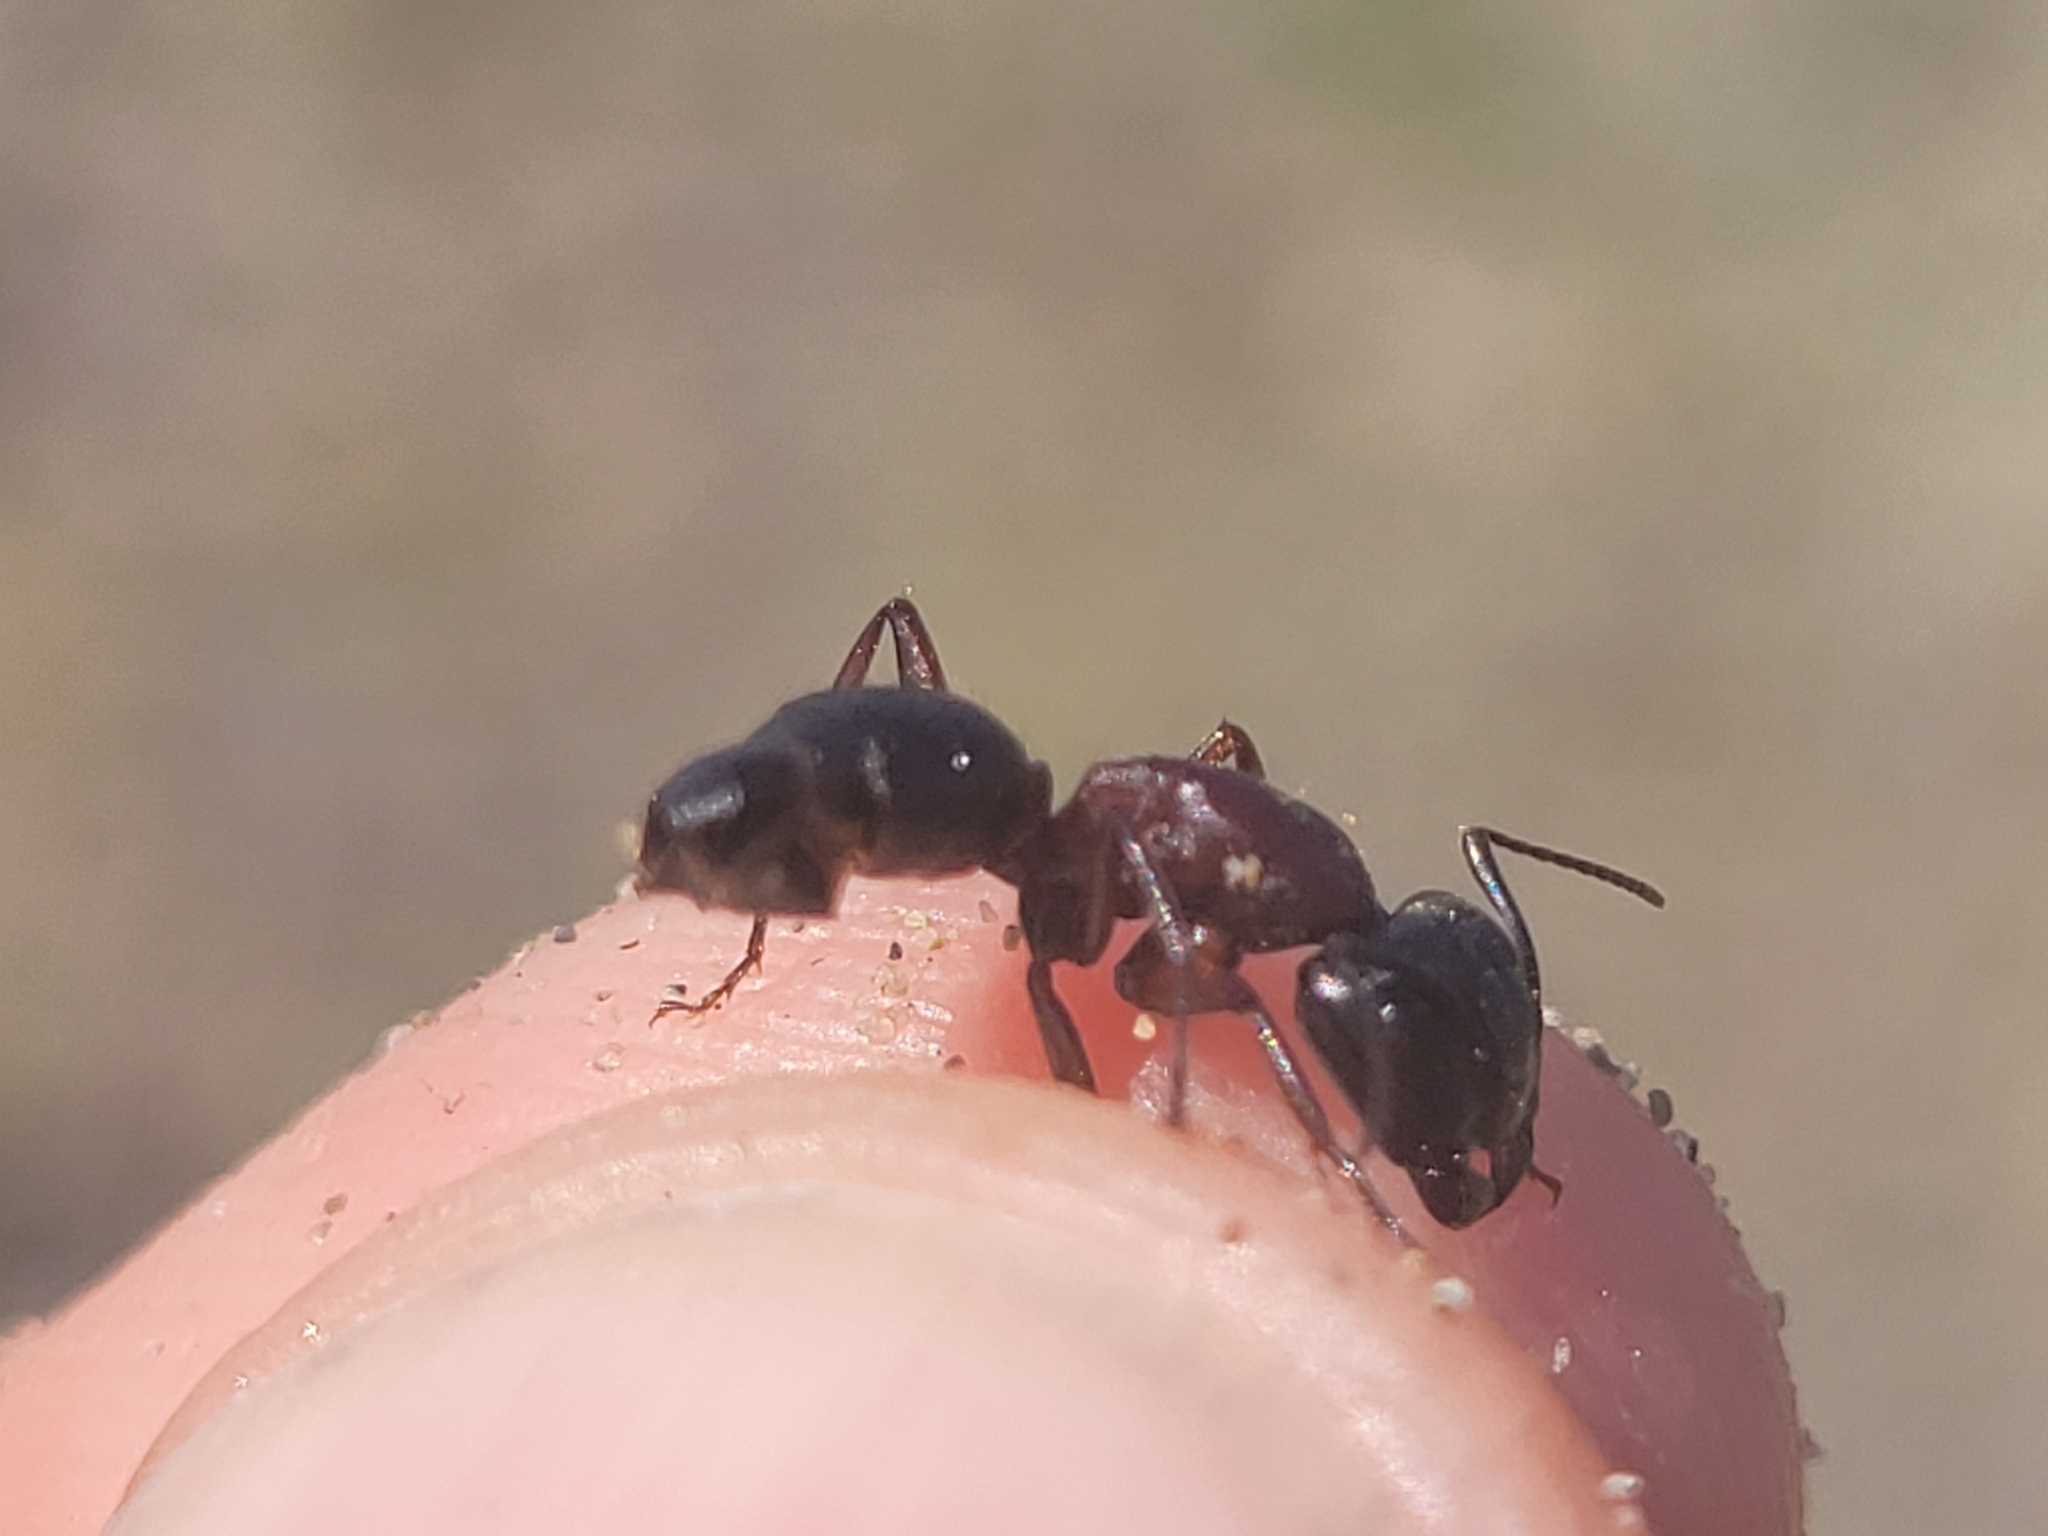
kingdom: Animalia
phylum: Arthropoda
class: Insecta
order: Hymenoptera
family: Formicidae
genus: Camponotus
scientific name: Camponotus novaeboracensis
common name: New york carpenter ant
